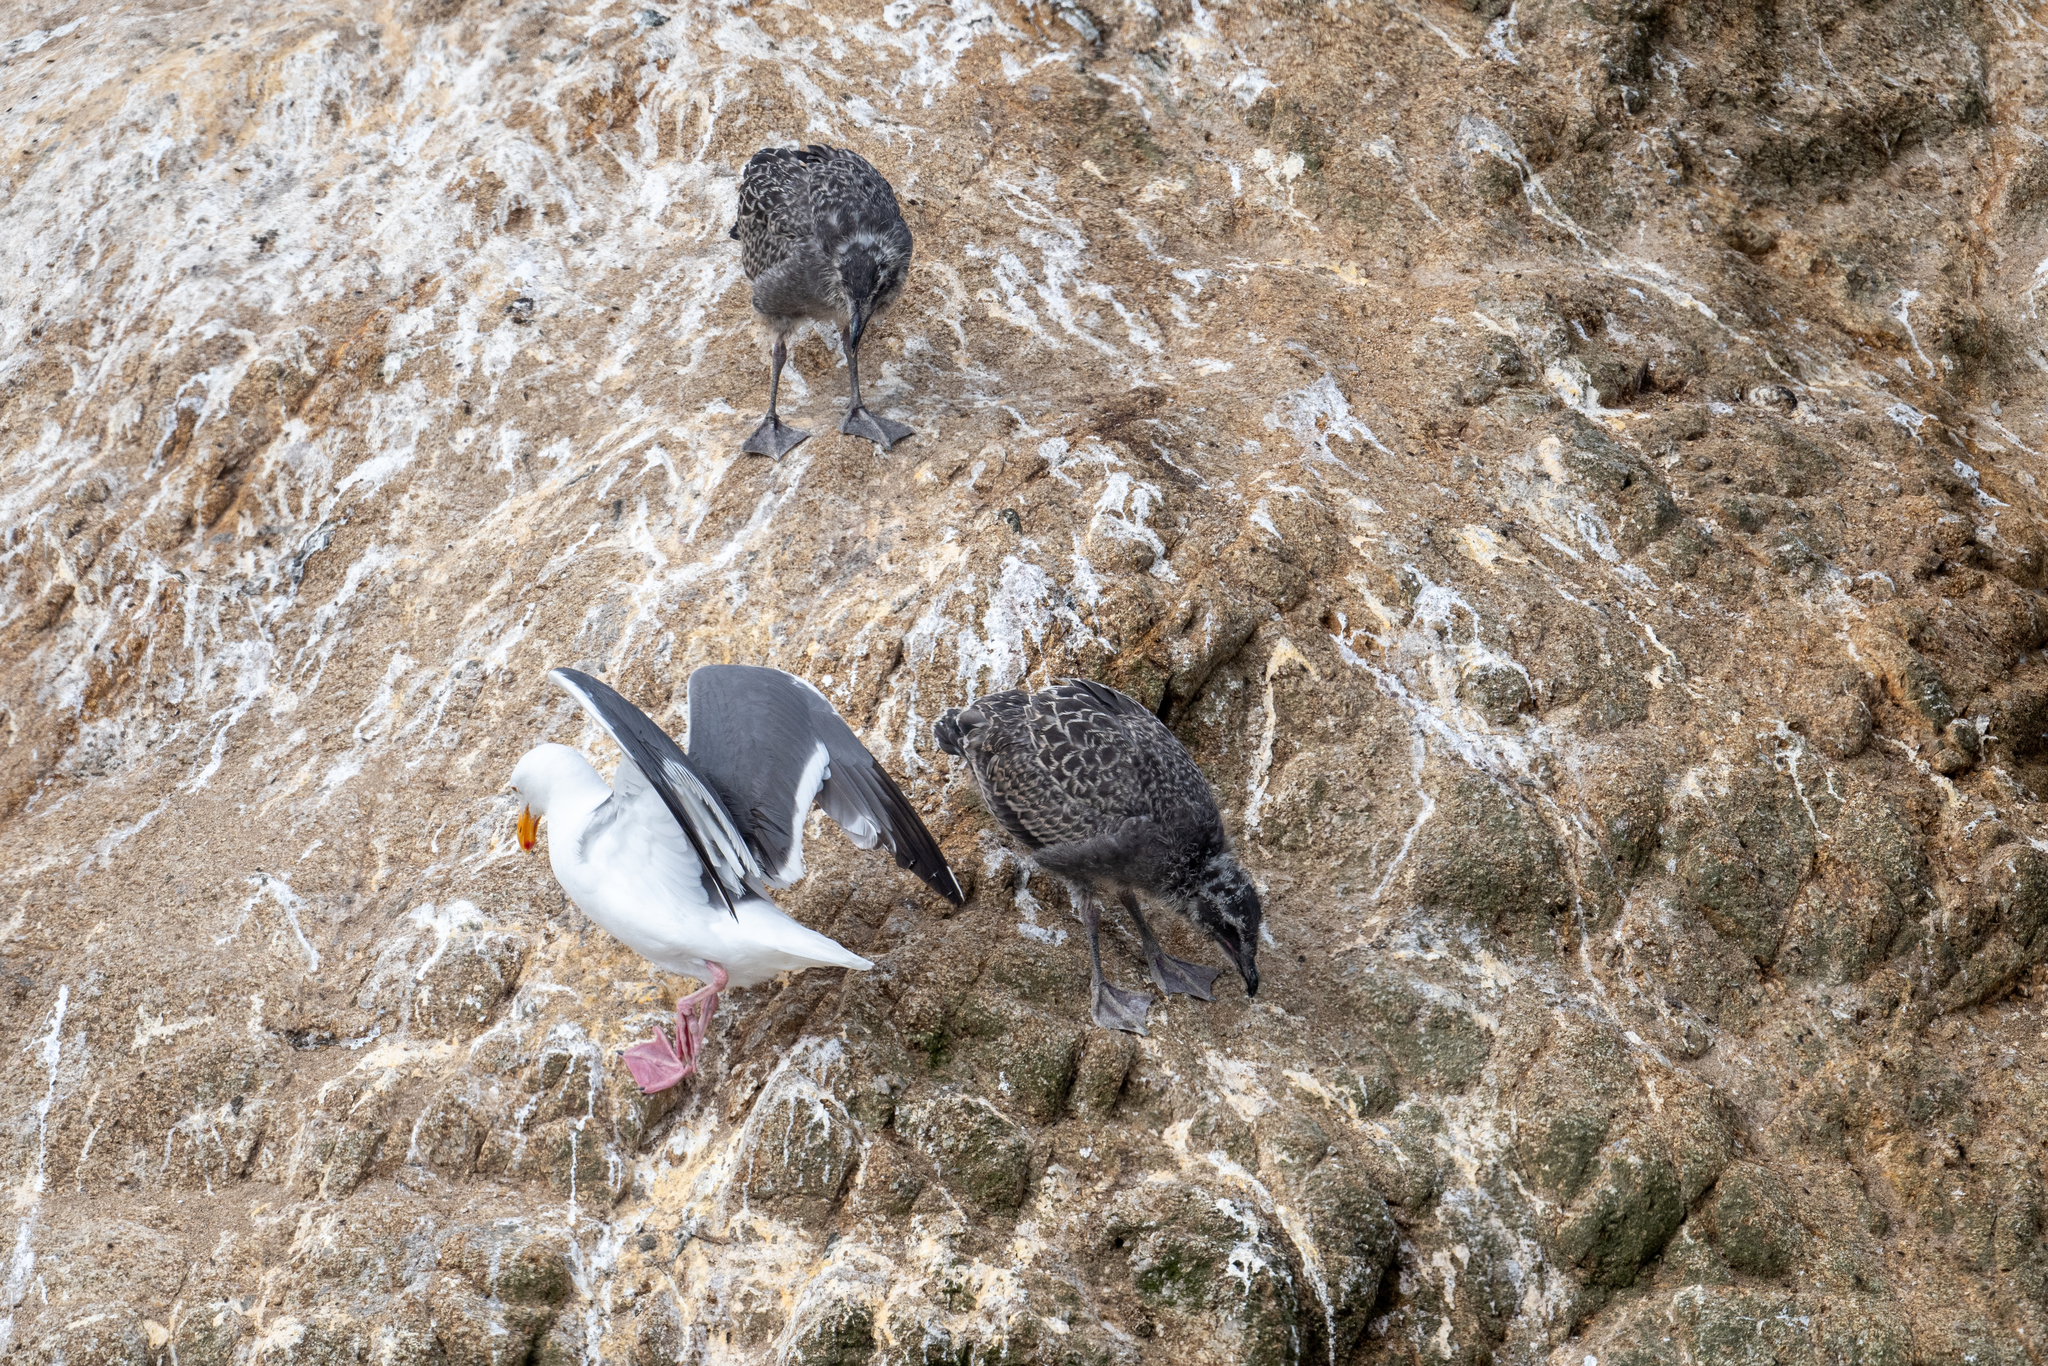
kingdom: Animalia
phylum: Chordata
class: Aves
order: Charadriiformes
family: Laridae
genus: Larus
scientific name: Larus occidentalis
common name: Western gull
